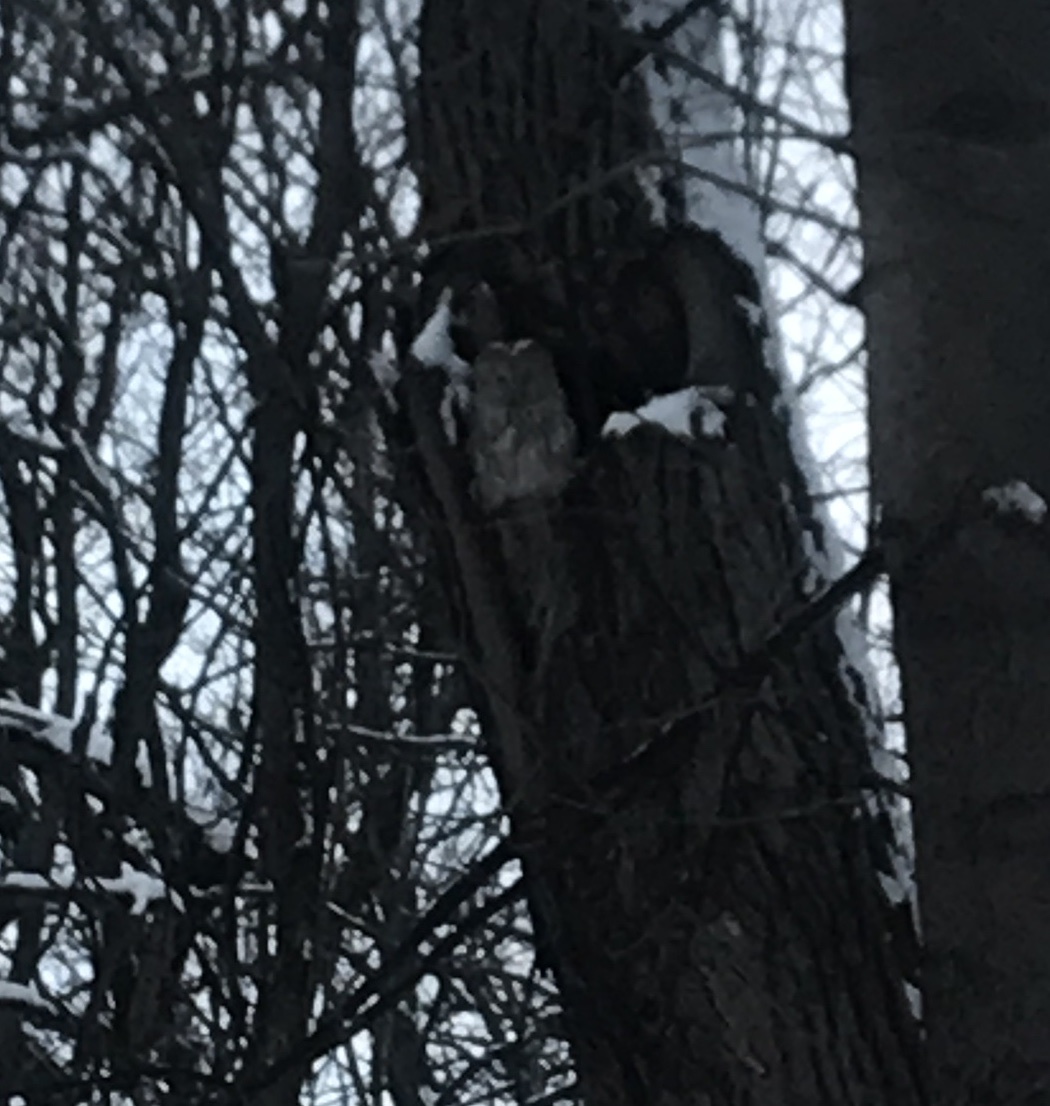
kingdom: Animalia
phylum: Chordata
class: Aves
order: Strigiformes
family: Strigidae
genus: Strix
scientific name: Strix uralensis
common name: Ural owl
